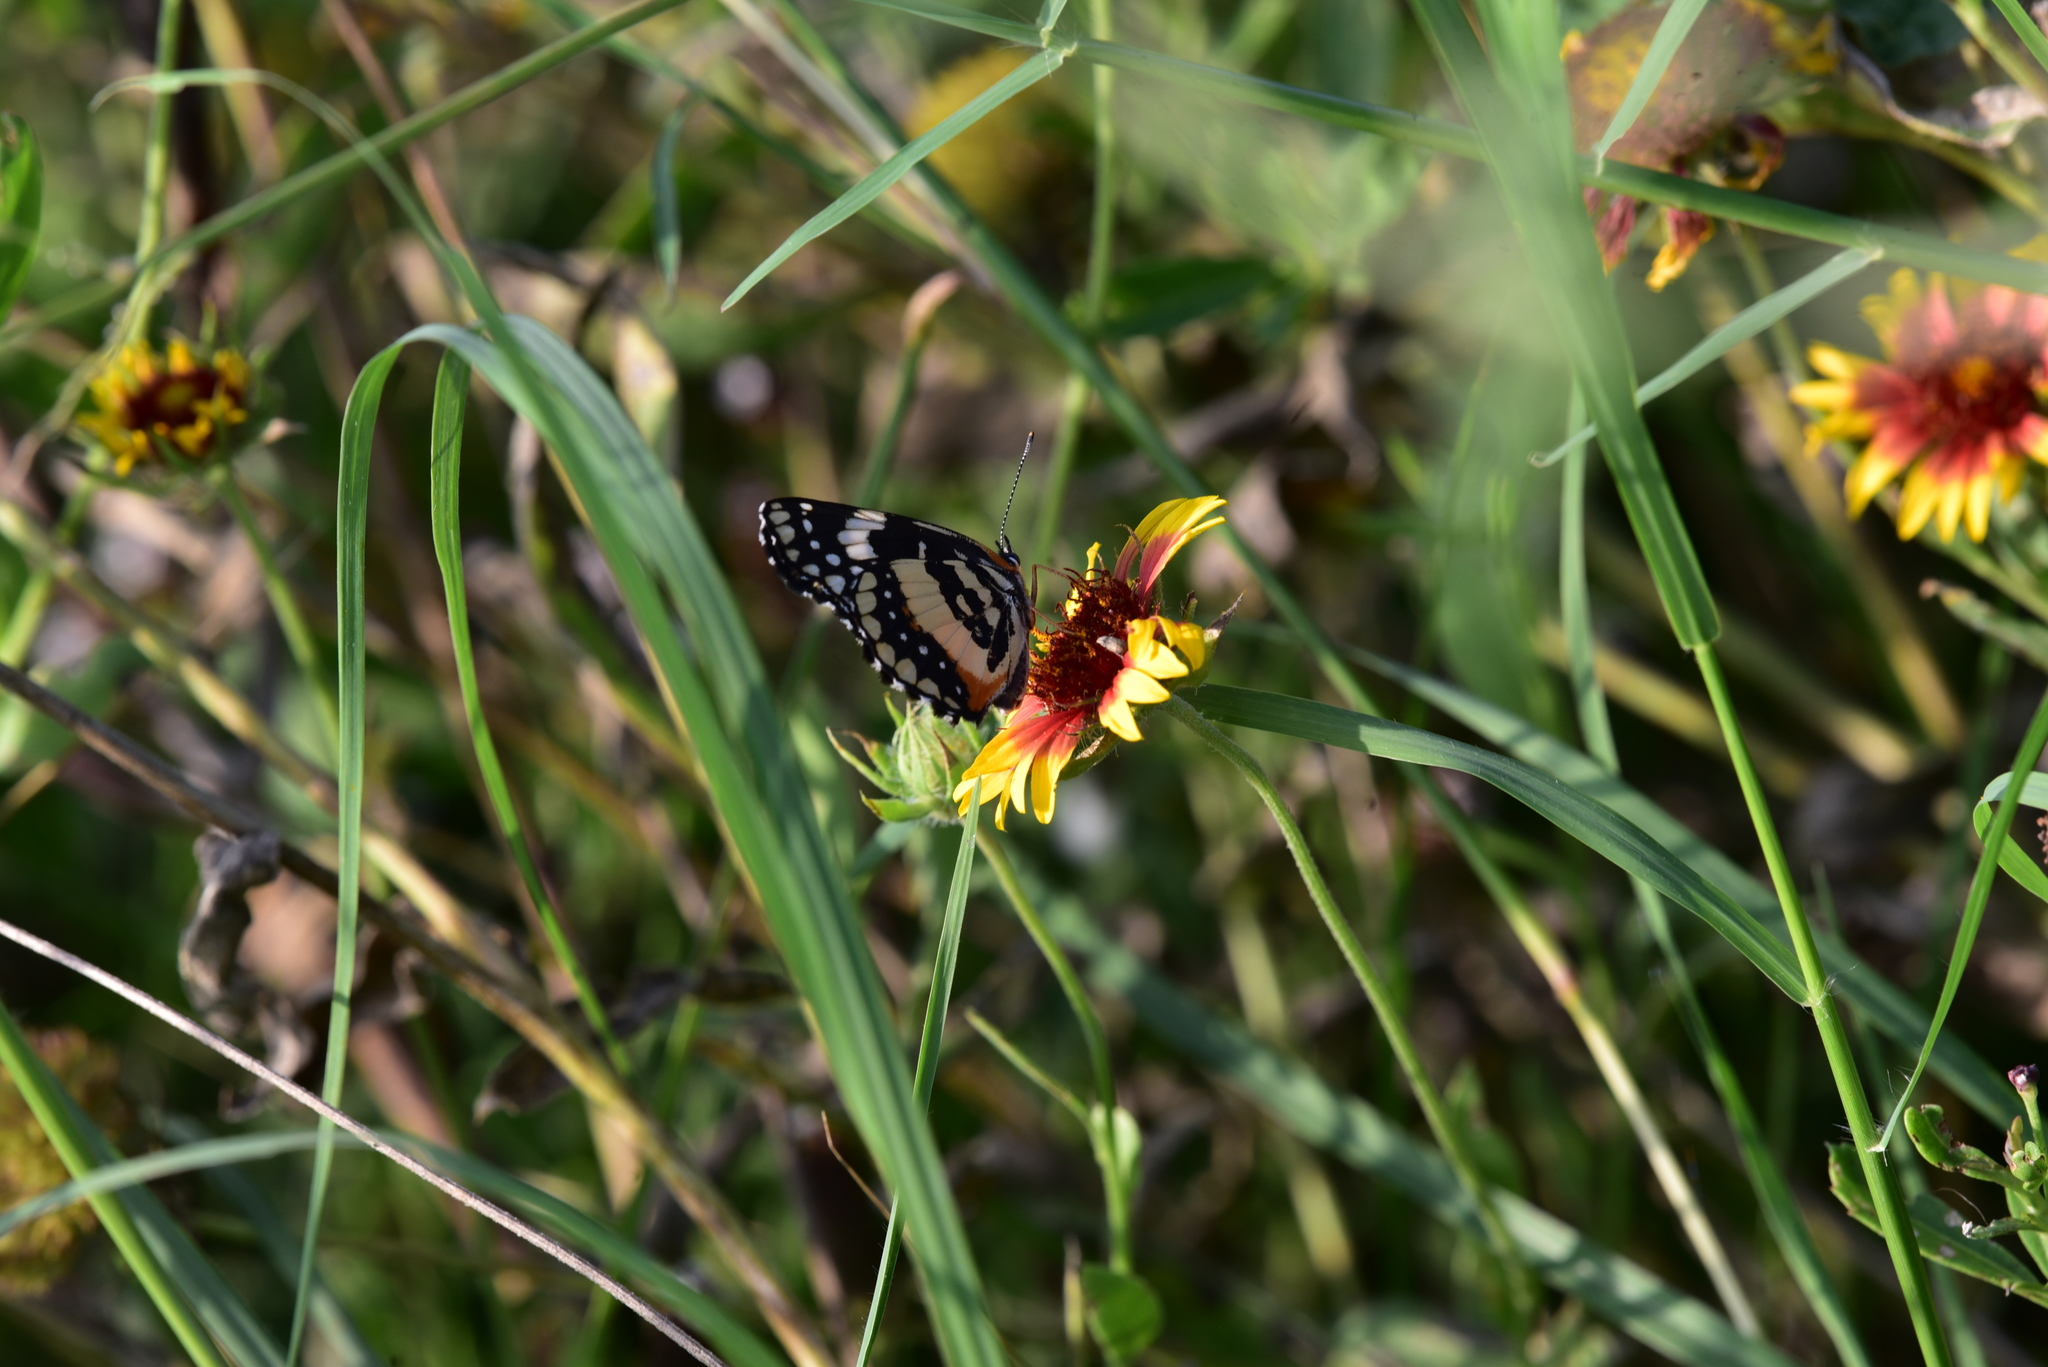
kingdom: Animalia
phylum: Arthropoda
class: Insecta
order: Lepidoptera
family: Nymphalidae
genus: Chlosyne
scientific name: Chlosyne lacinia
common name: Bordered patch
